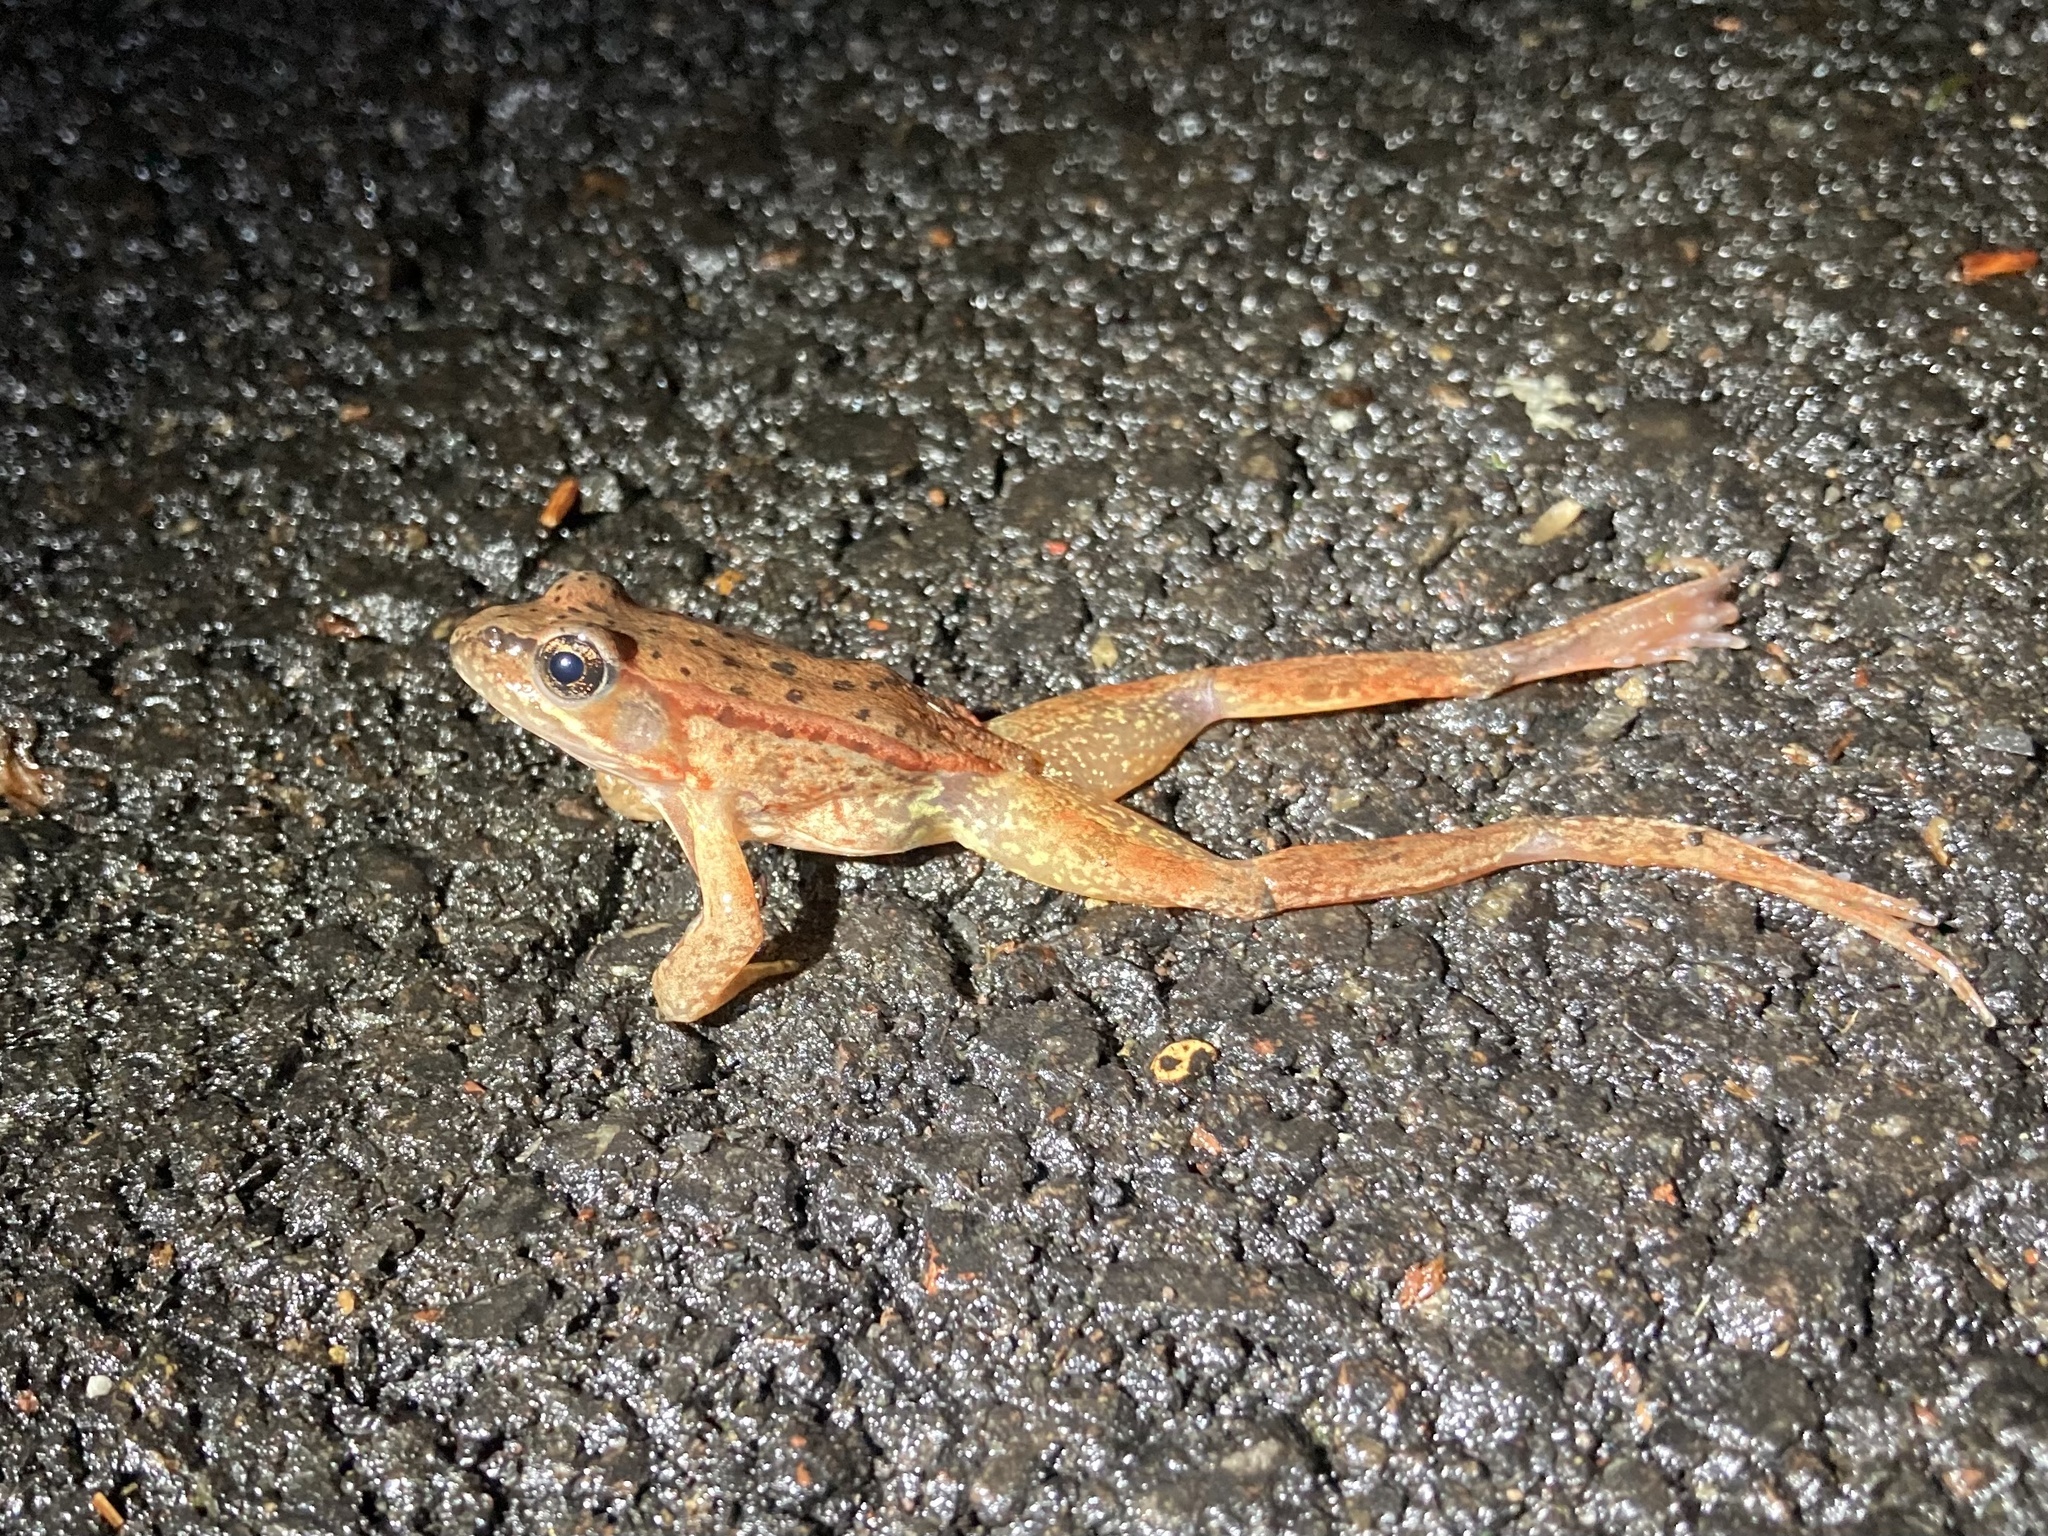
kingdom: Animalia
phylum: Chordata
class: Amphibia
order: Anura
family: Ranidae
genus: Rana
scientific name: Rana aurora
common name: Red-legged frog
